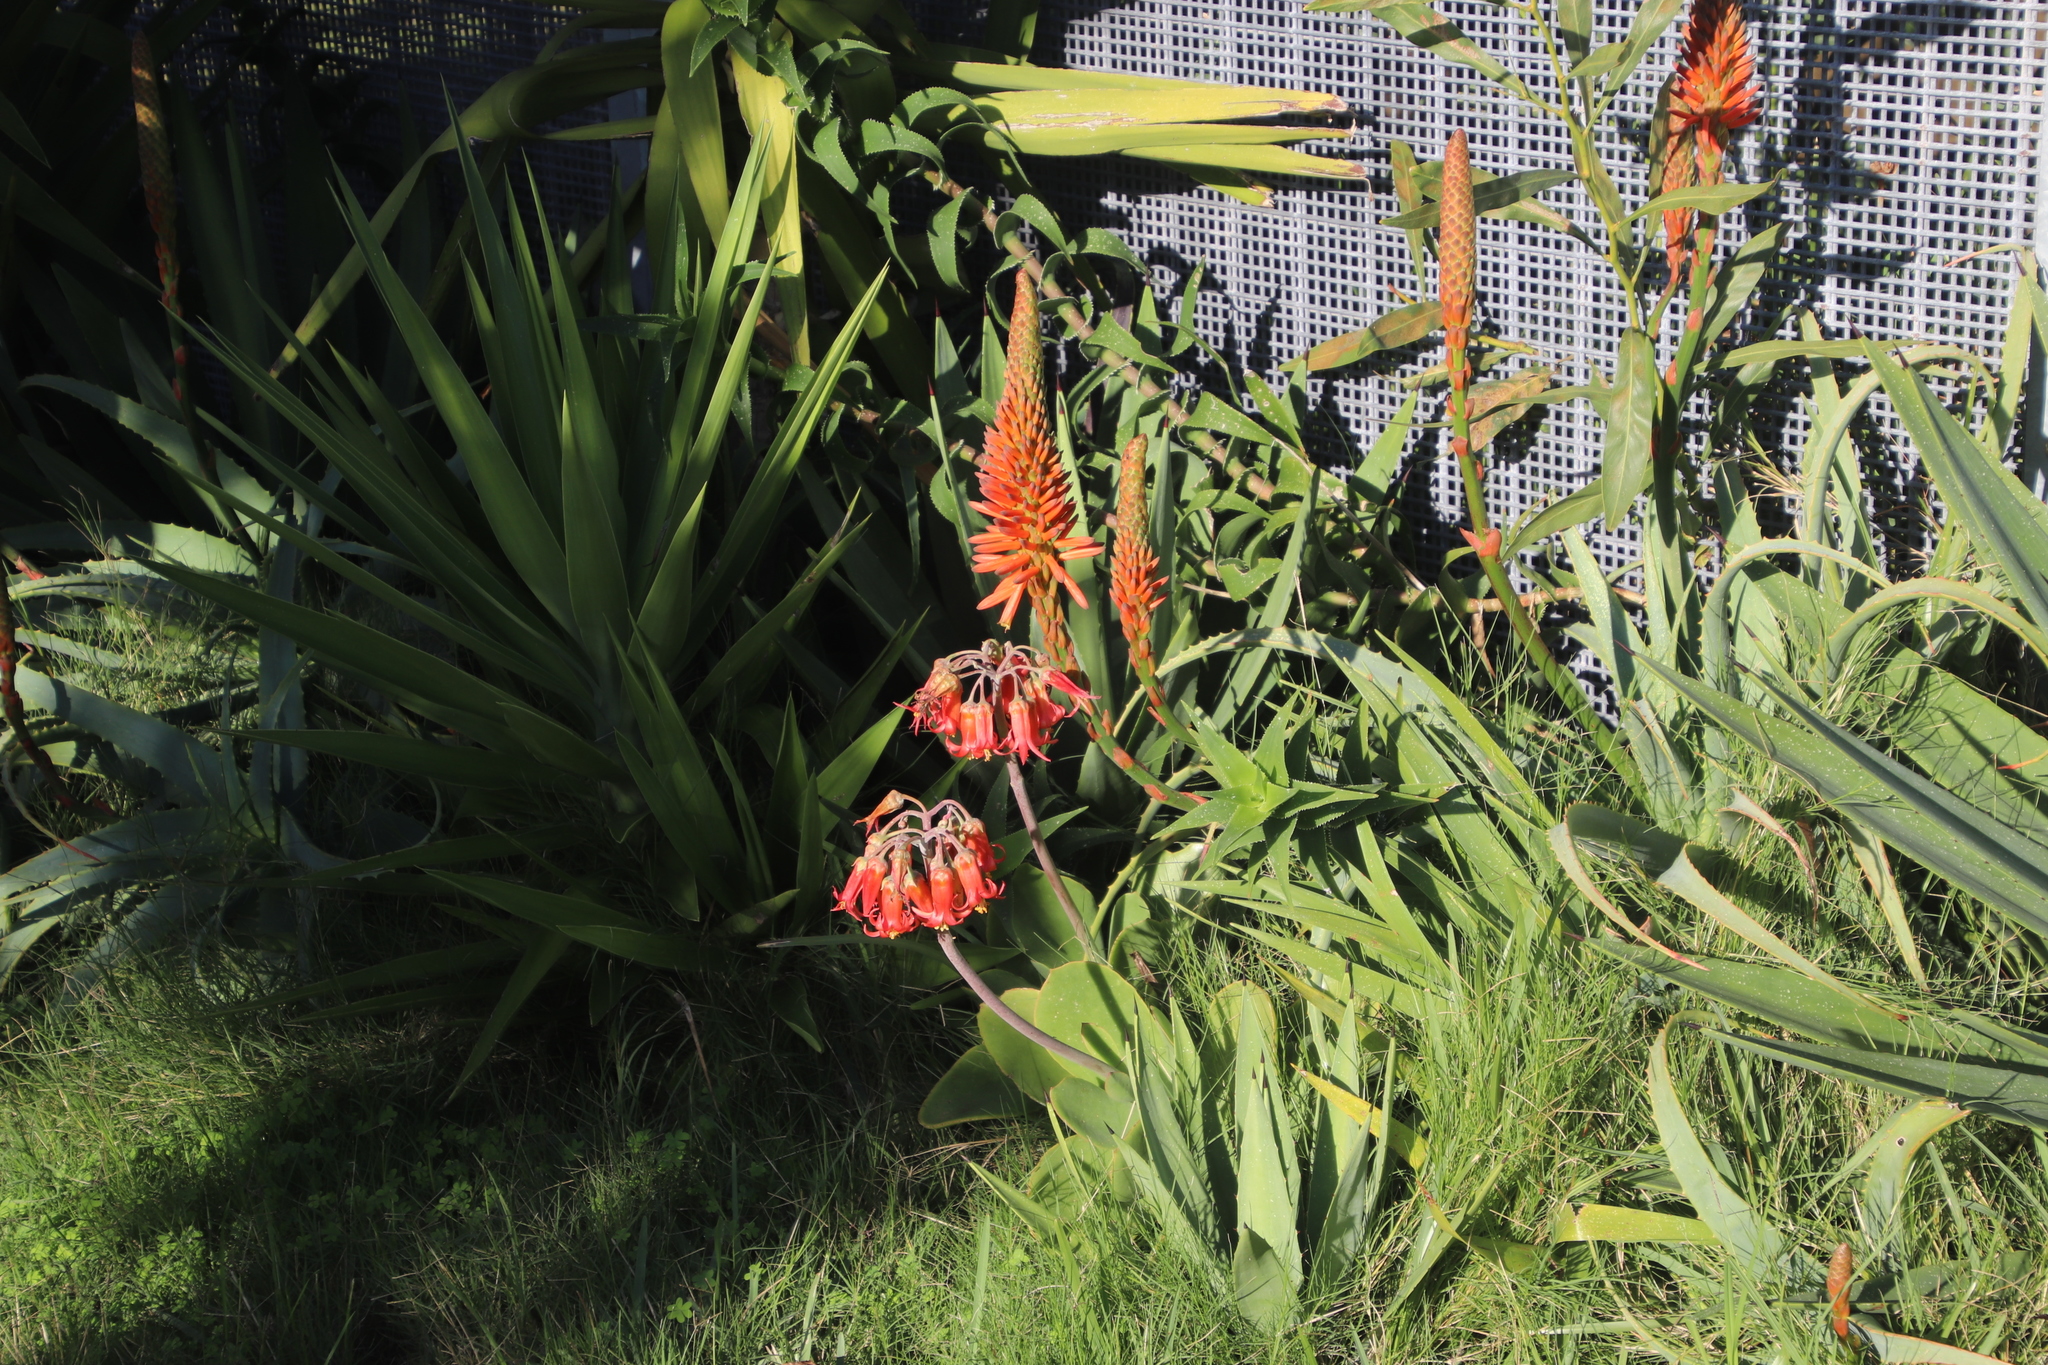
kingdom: Plantae
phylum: Tracheophyta
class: Liliopsida
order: Asparagales
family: Asphodelaceae
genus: Aloe
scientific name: Aloe arborescens
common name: Candelabra aloe
